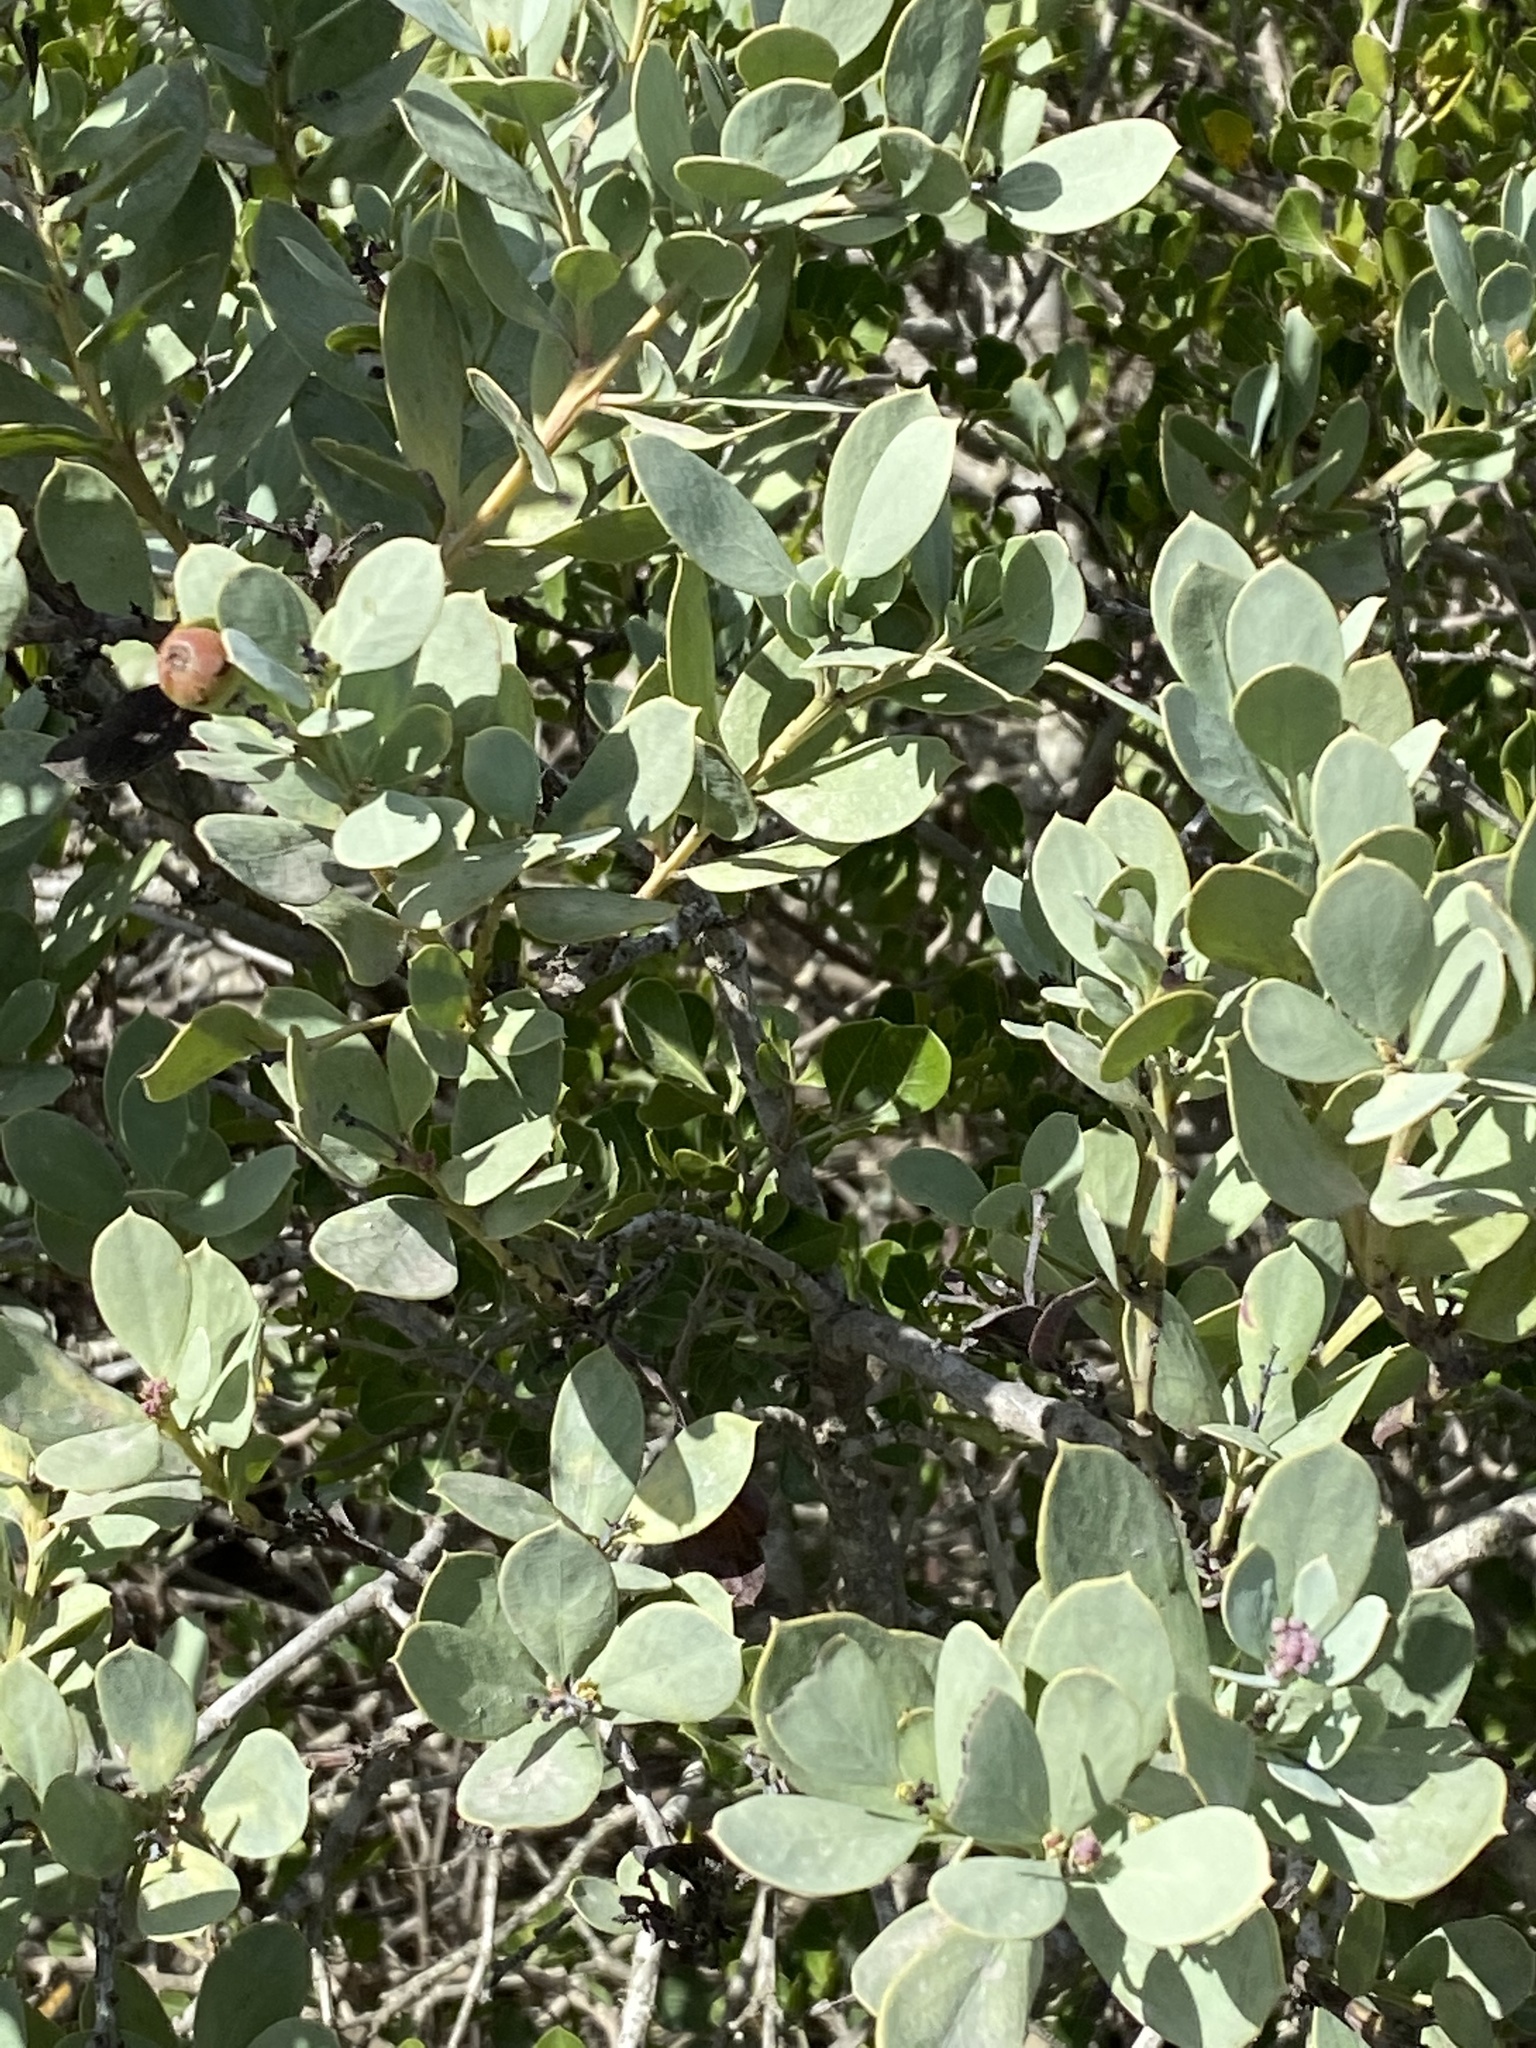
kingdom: Plantae
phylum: Tracheophyta
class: Magnoliopsida
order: Santalales
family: Santalaceae
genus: Osyris
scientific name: Osyris compressa
